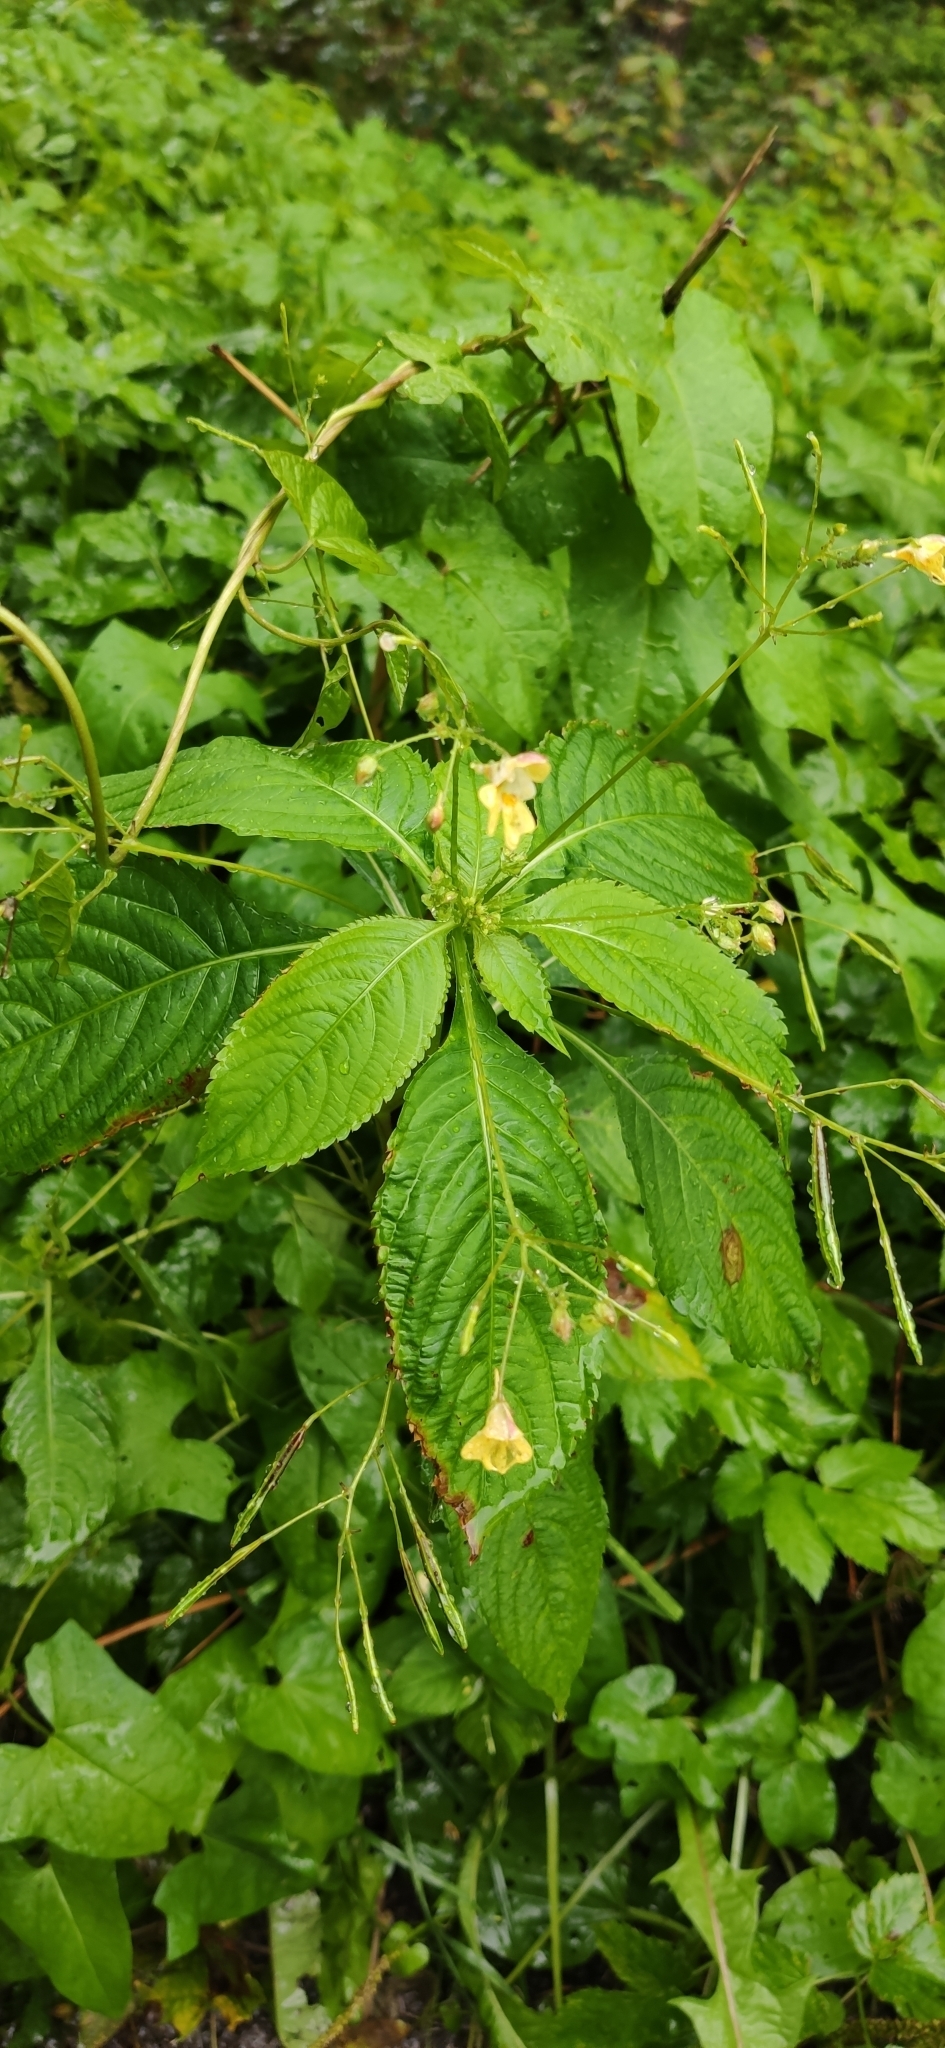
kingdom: Plantae
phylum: Tracheophyta
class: Magnoliopsida
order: Ericales
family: Balsaminaceae
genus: Impatiens
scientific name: Impatiens parviflora
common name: Small balsam
